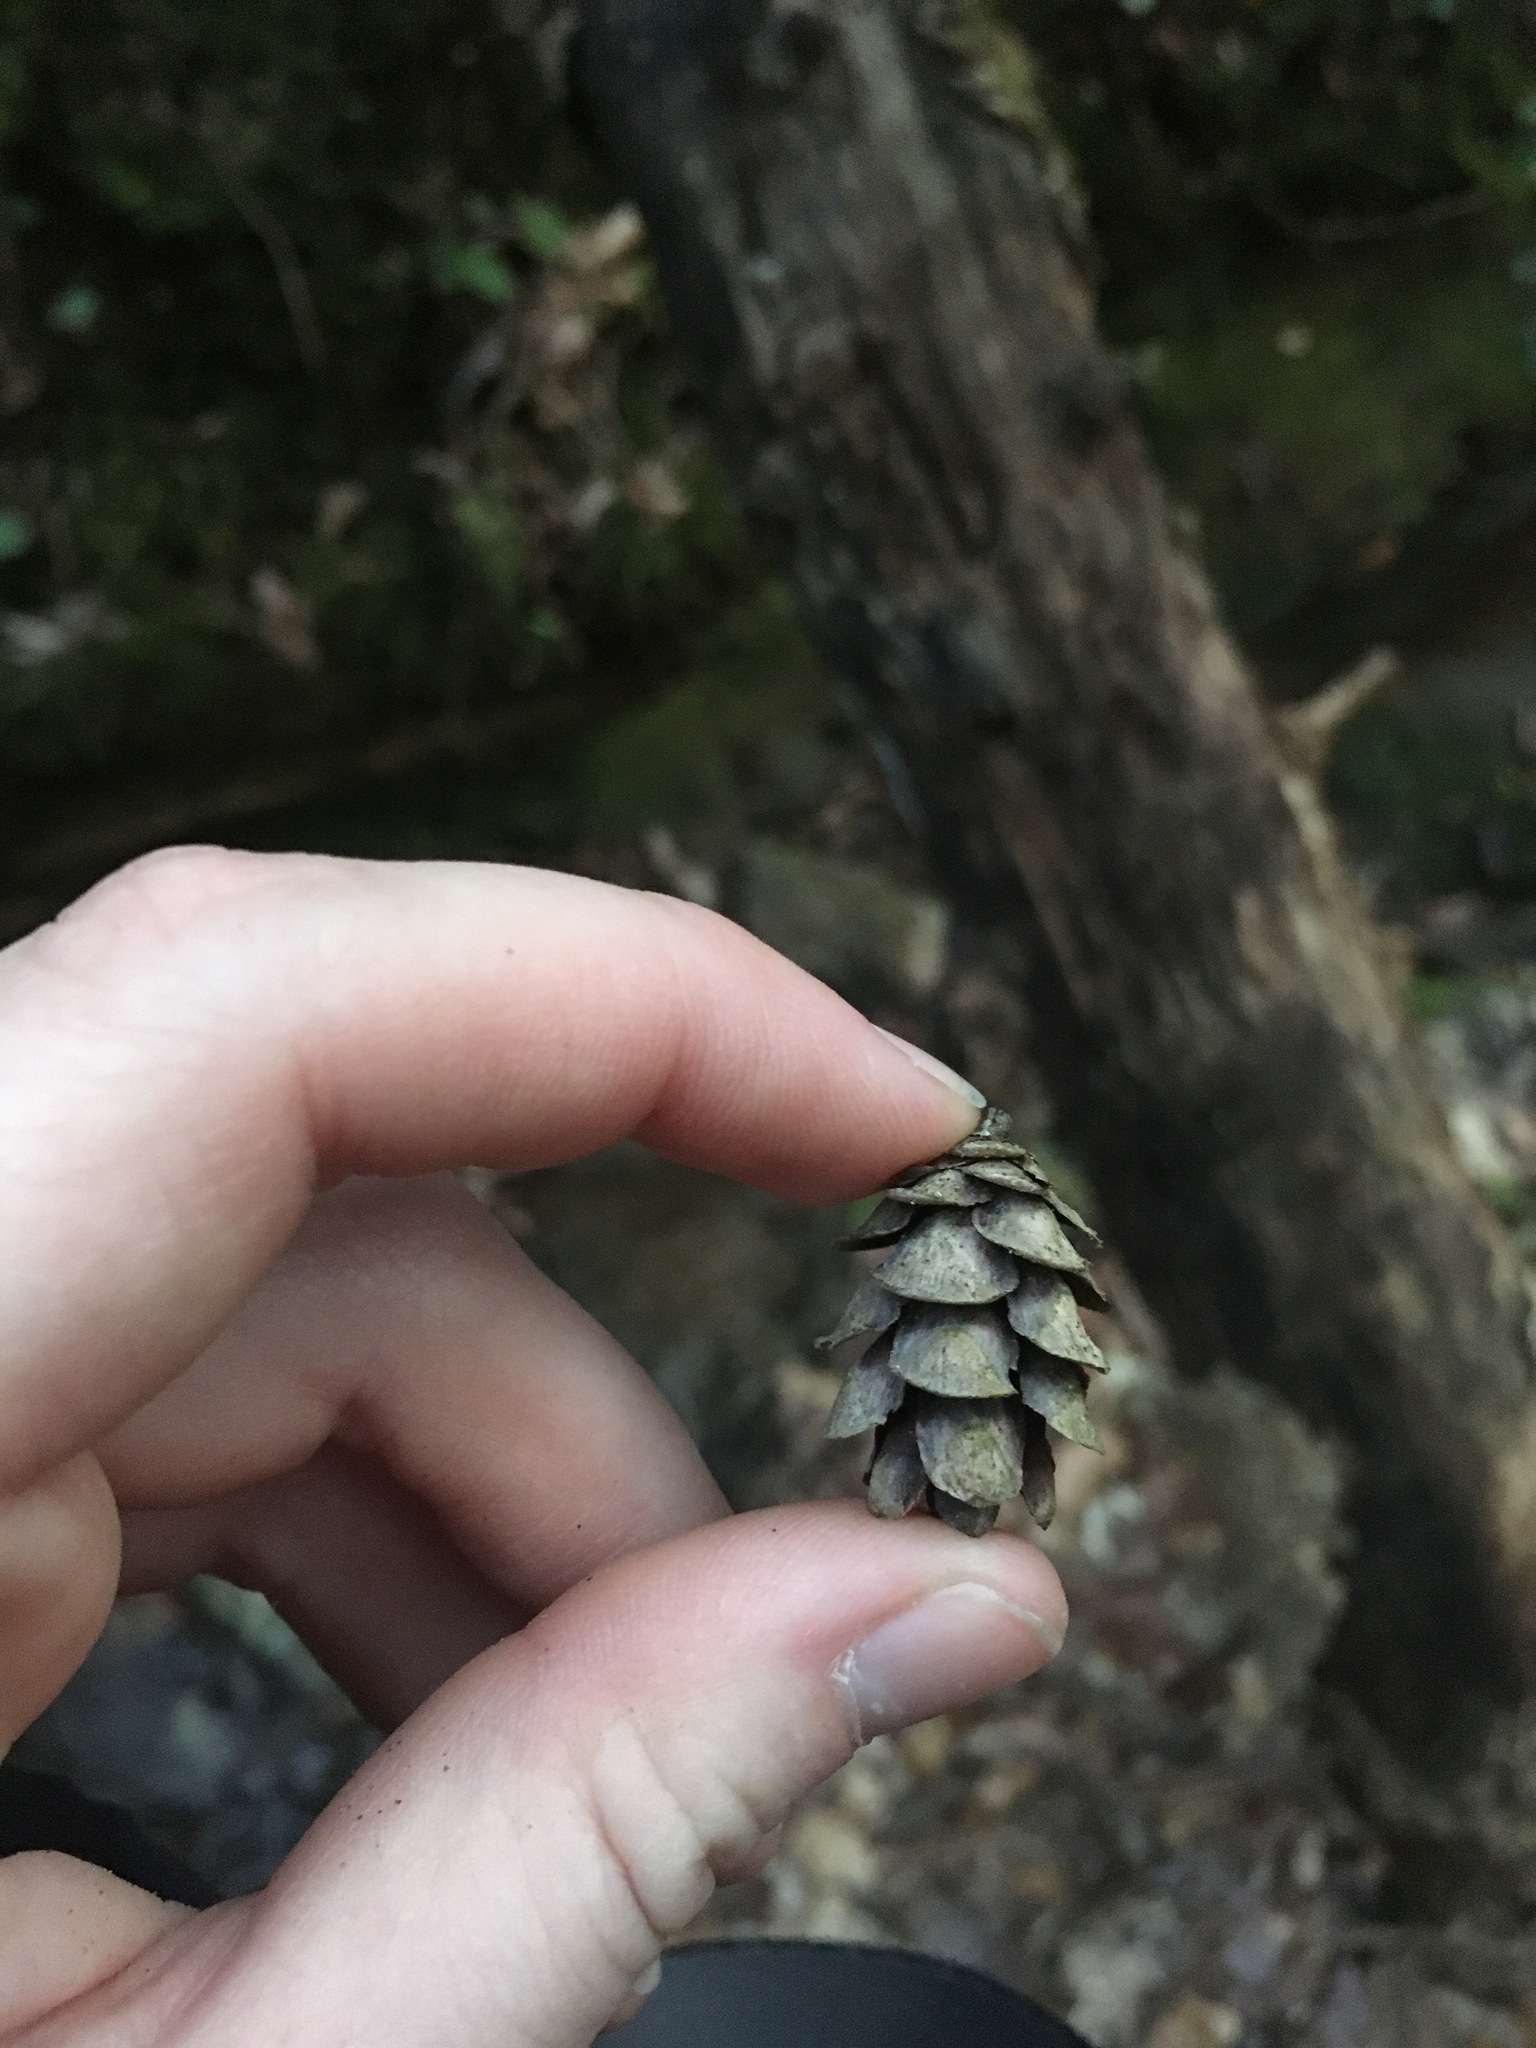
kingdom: Plantae
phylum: Tracheophyta
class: Pinopsida
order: Pinales
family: Pinaceae
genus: Tsuga
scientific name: Tsuga canadensis
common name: Eastern hemlock
